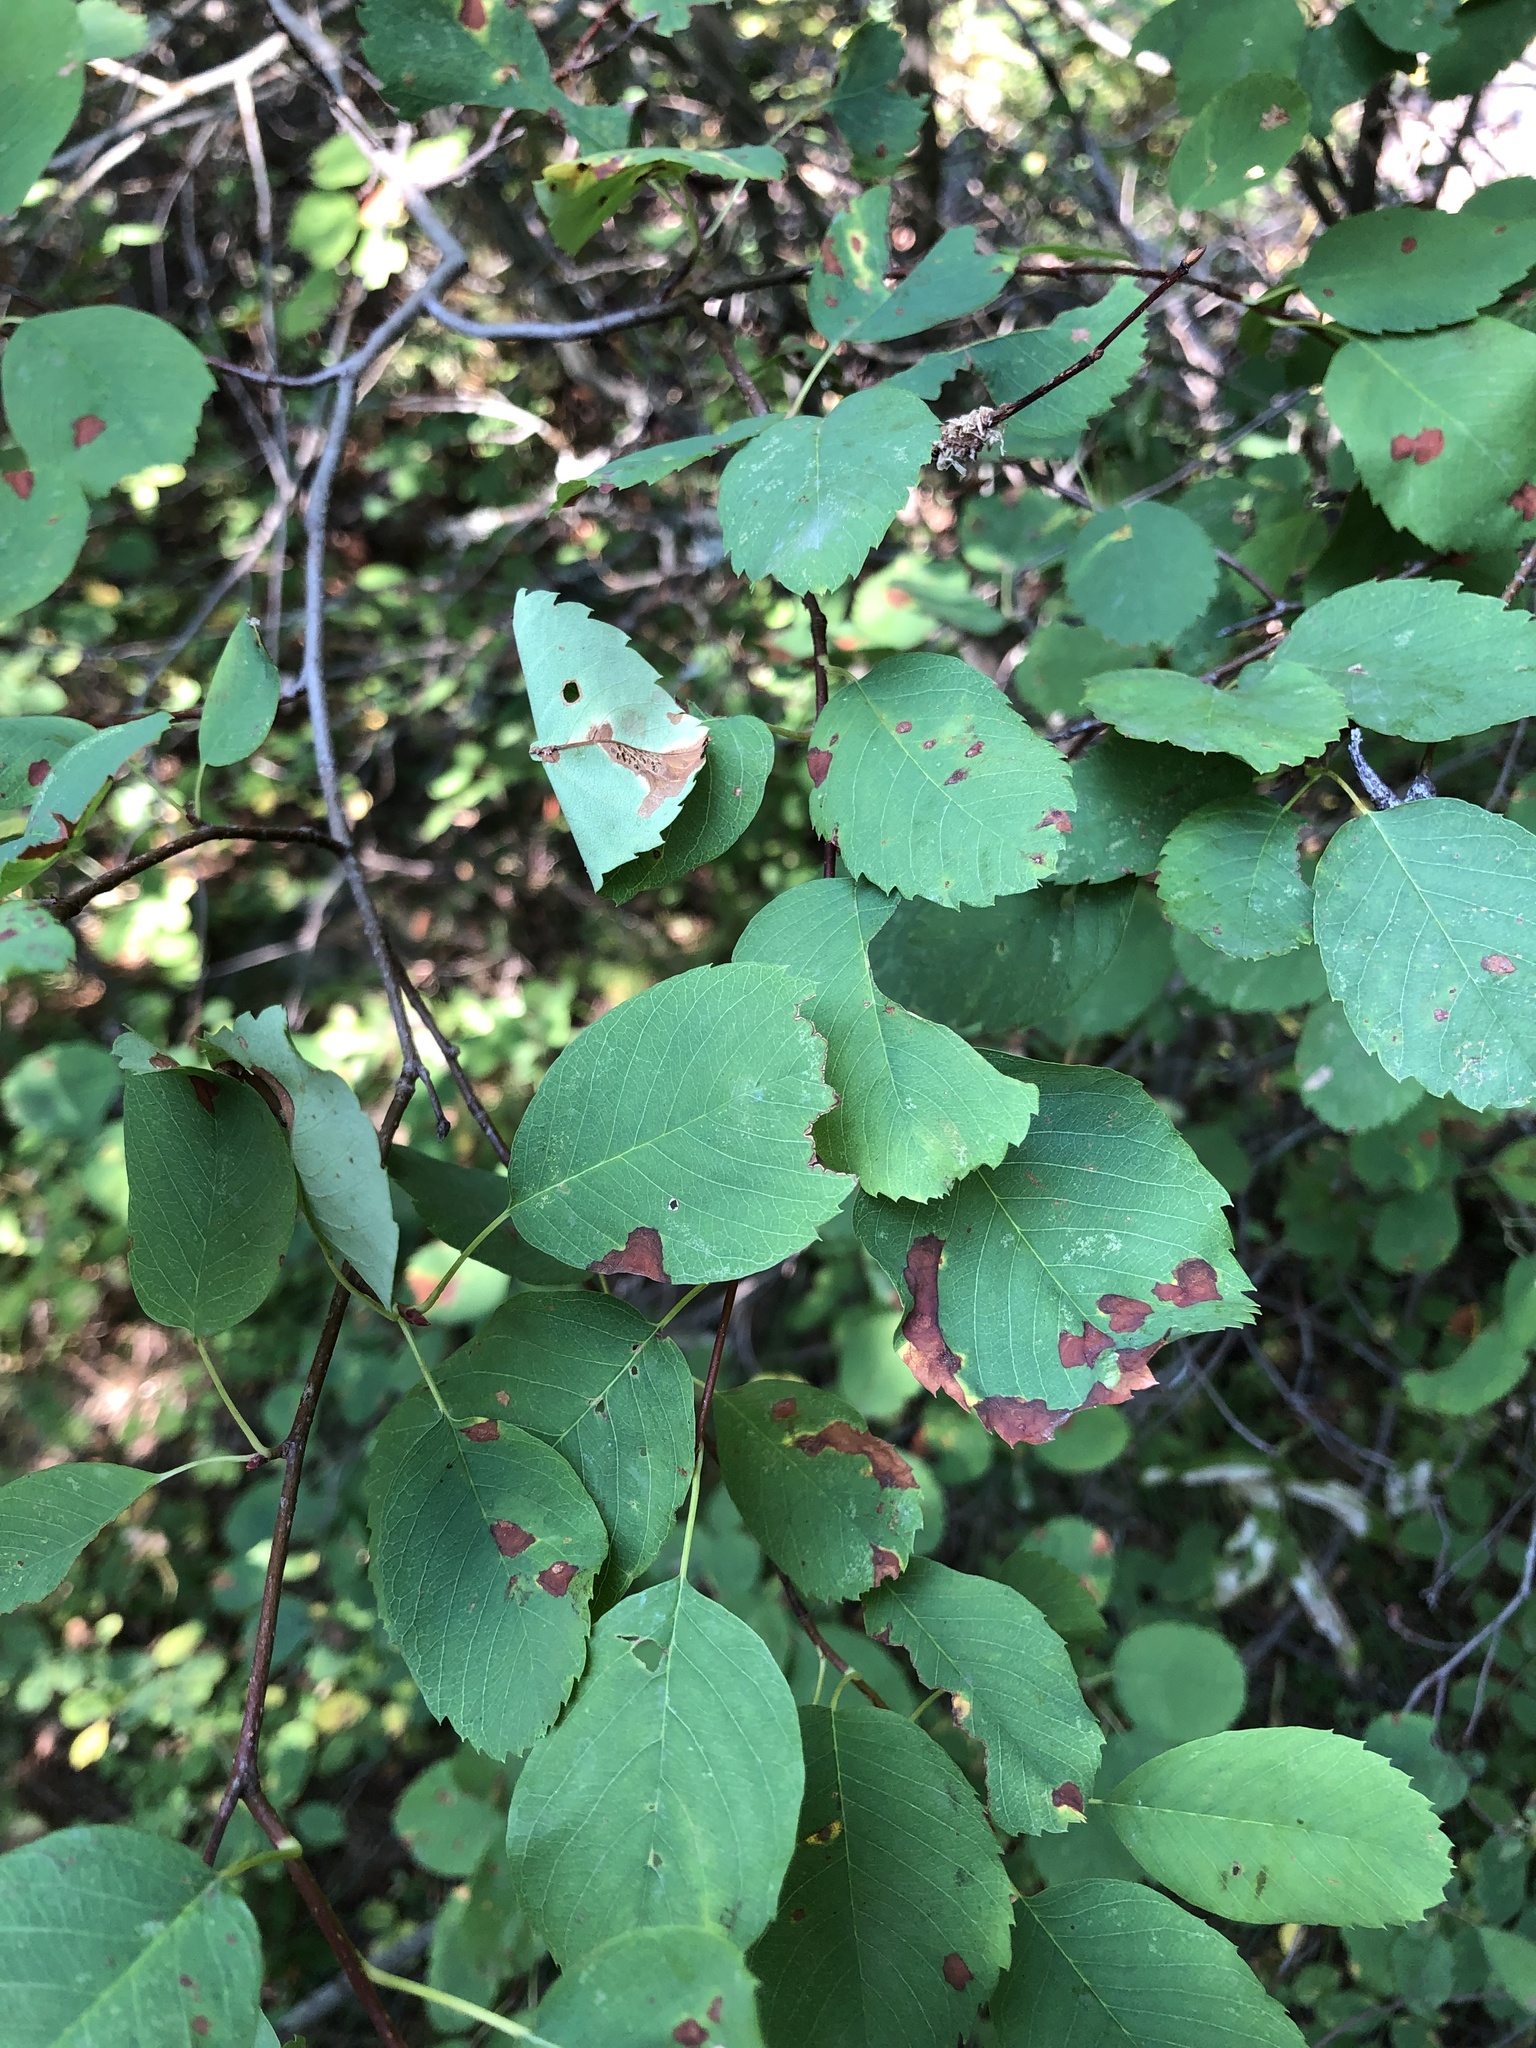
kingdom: Plantae
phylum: Tracheophyta
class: Magnoliopsida
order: Rosales
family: Rosaceae
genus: Amelanchier
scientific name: Amelanchier alnifolia
